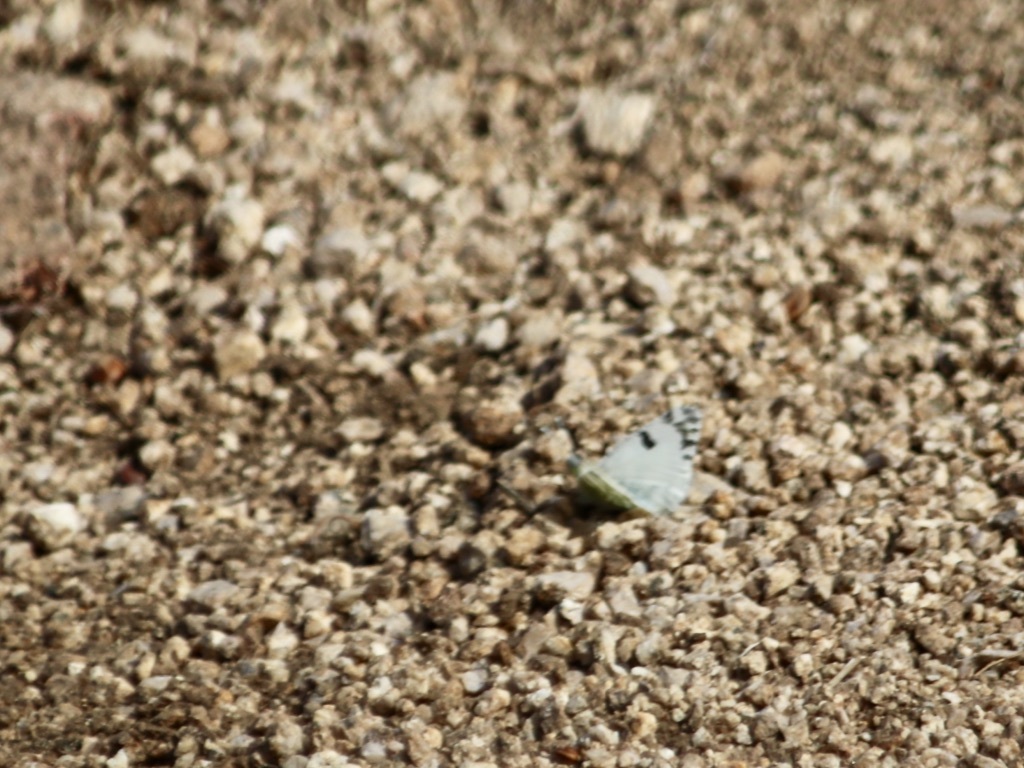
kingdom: Animalia
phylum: Arthropoda
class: Insecta
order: Lepidoptera
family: Pieridae
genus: Euchloe
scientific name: Euchloe lotta
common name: Desert marble
